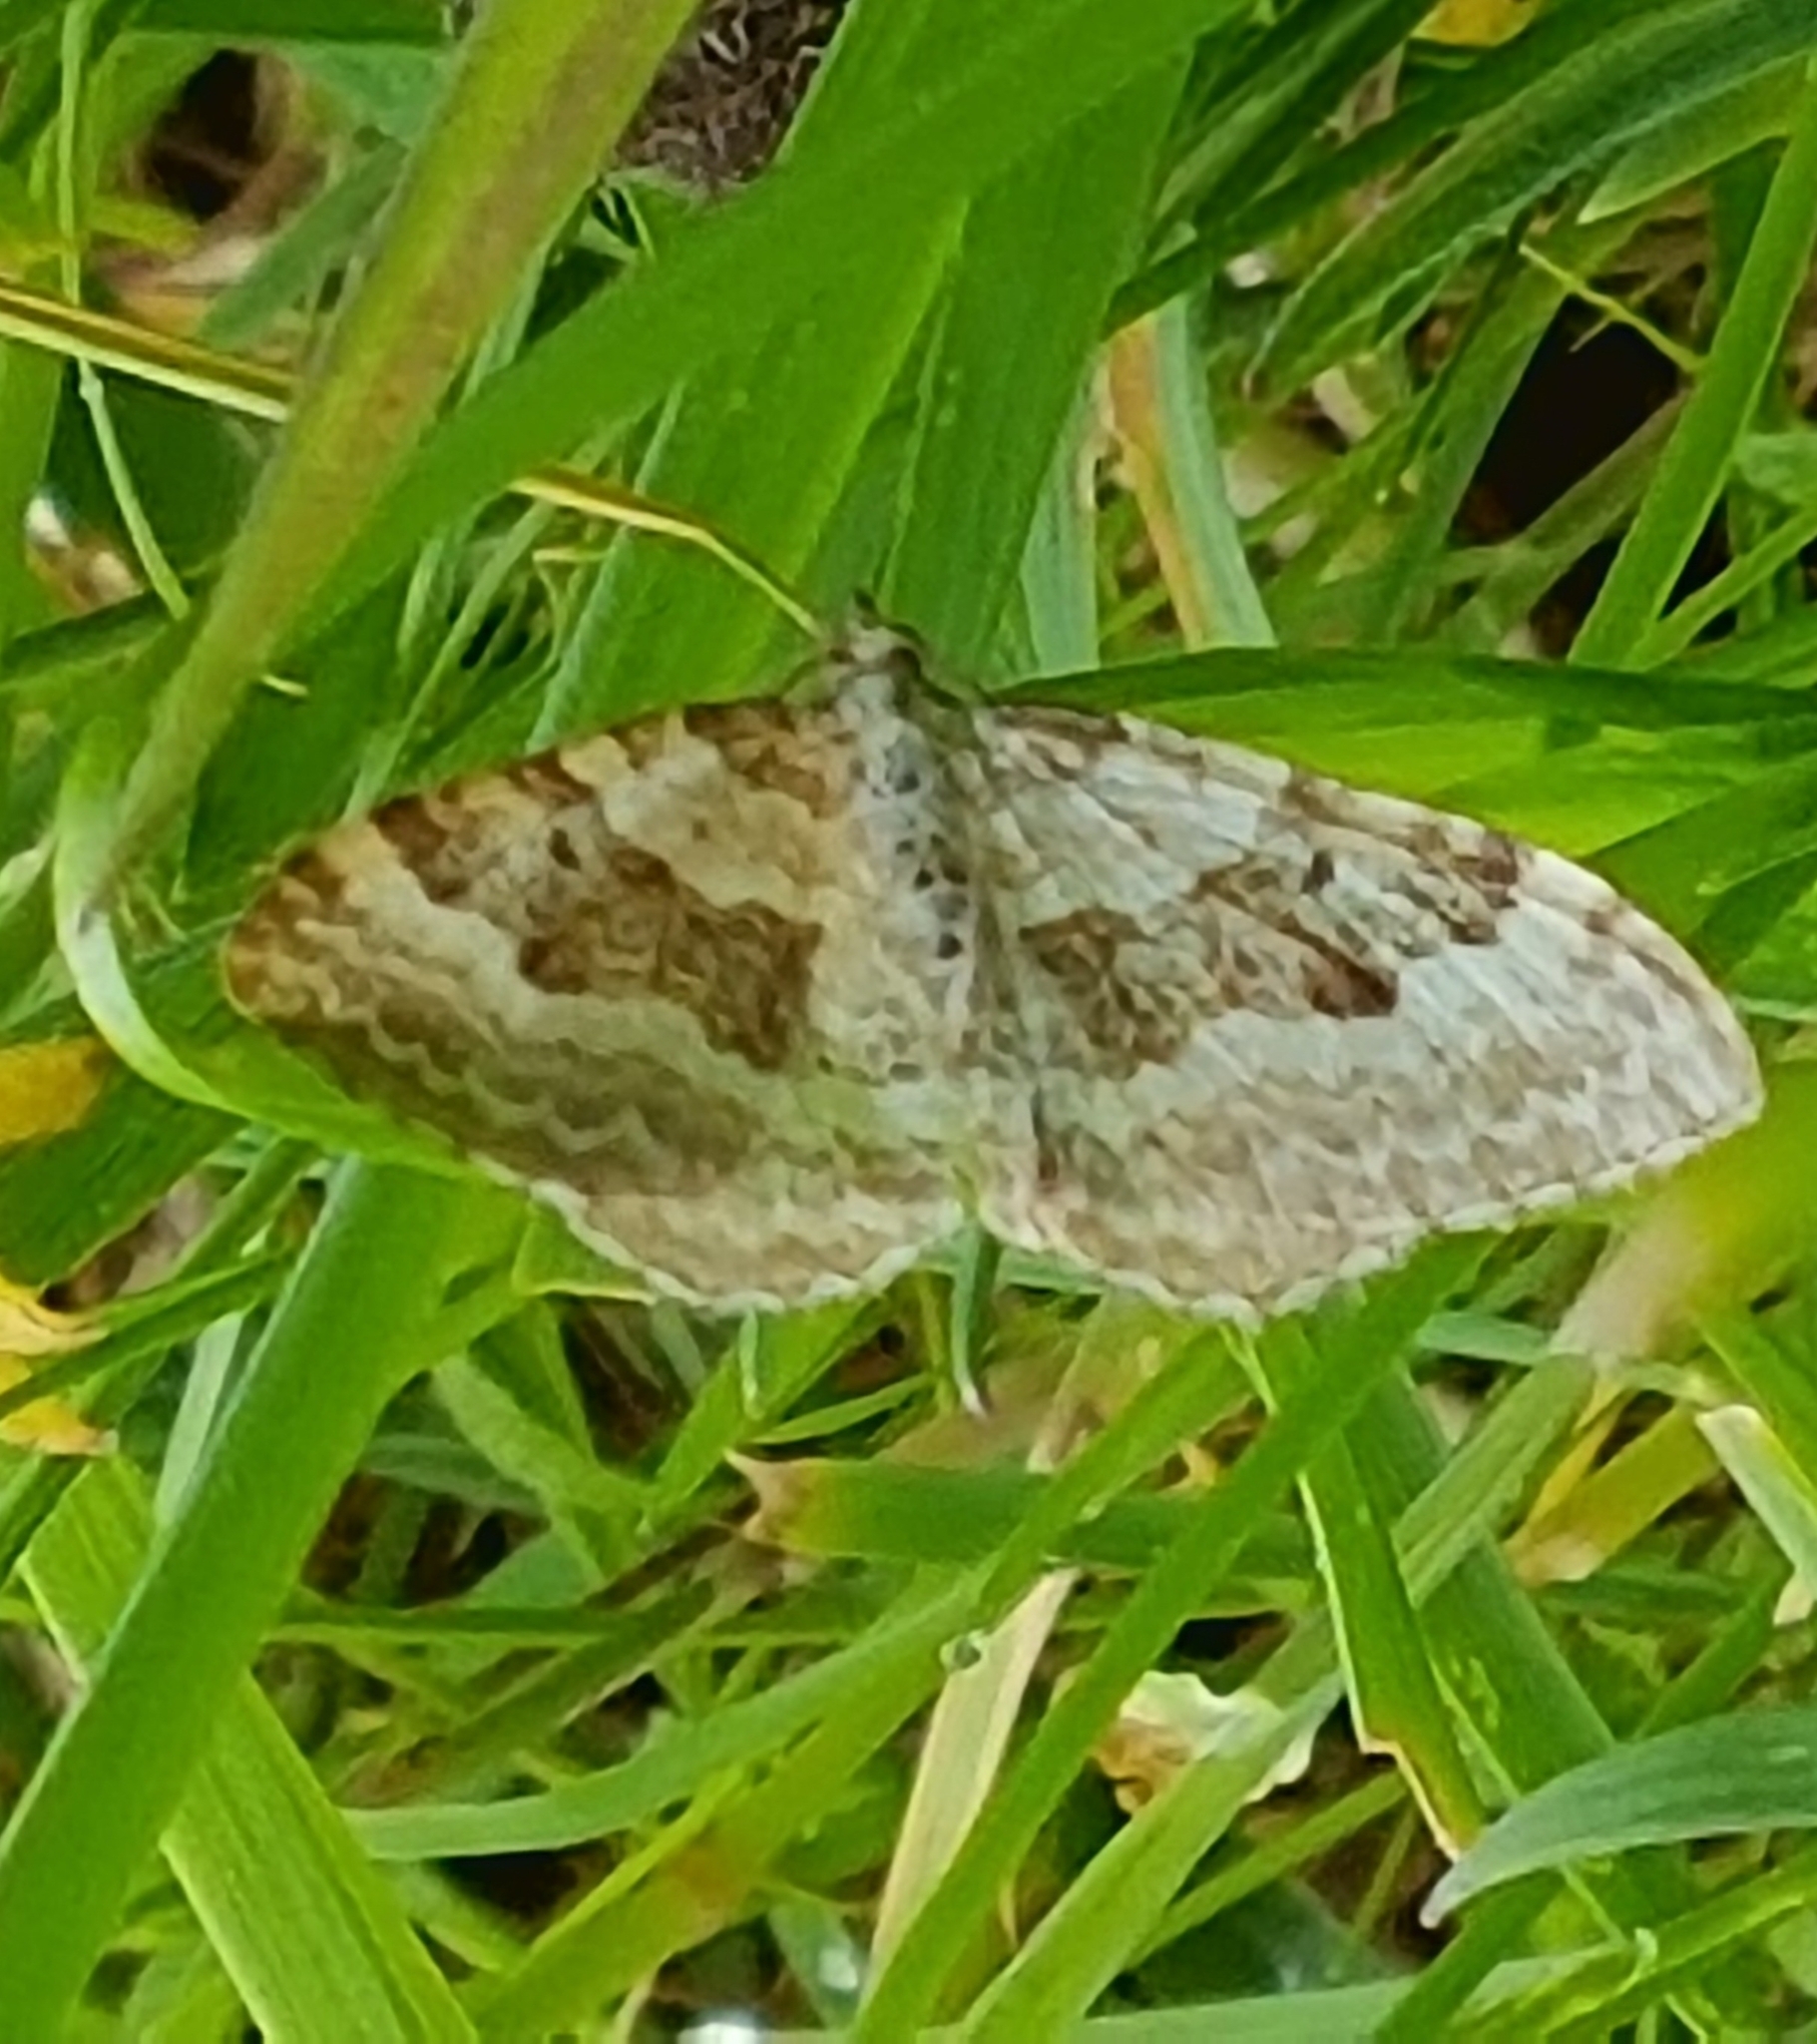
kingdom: Animalia
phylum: Arthropoda
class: Insecta
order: Lepidoptera
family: Geometridae
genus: Xanthorhoe
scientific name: Xanthorhoe montanata
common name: Silver-ground carpet
